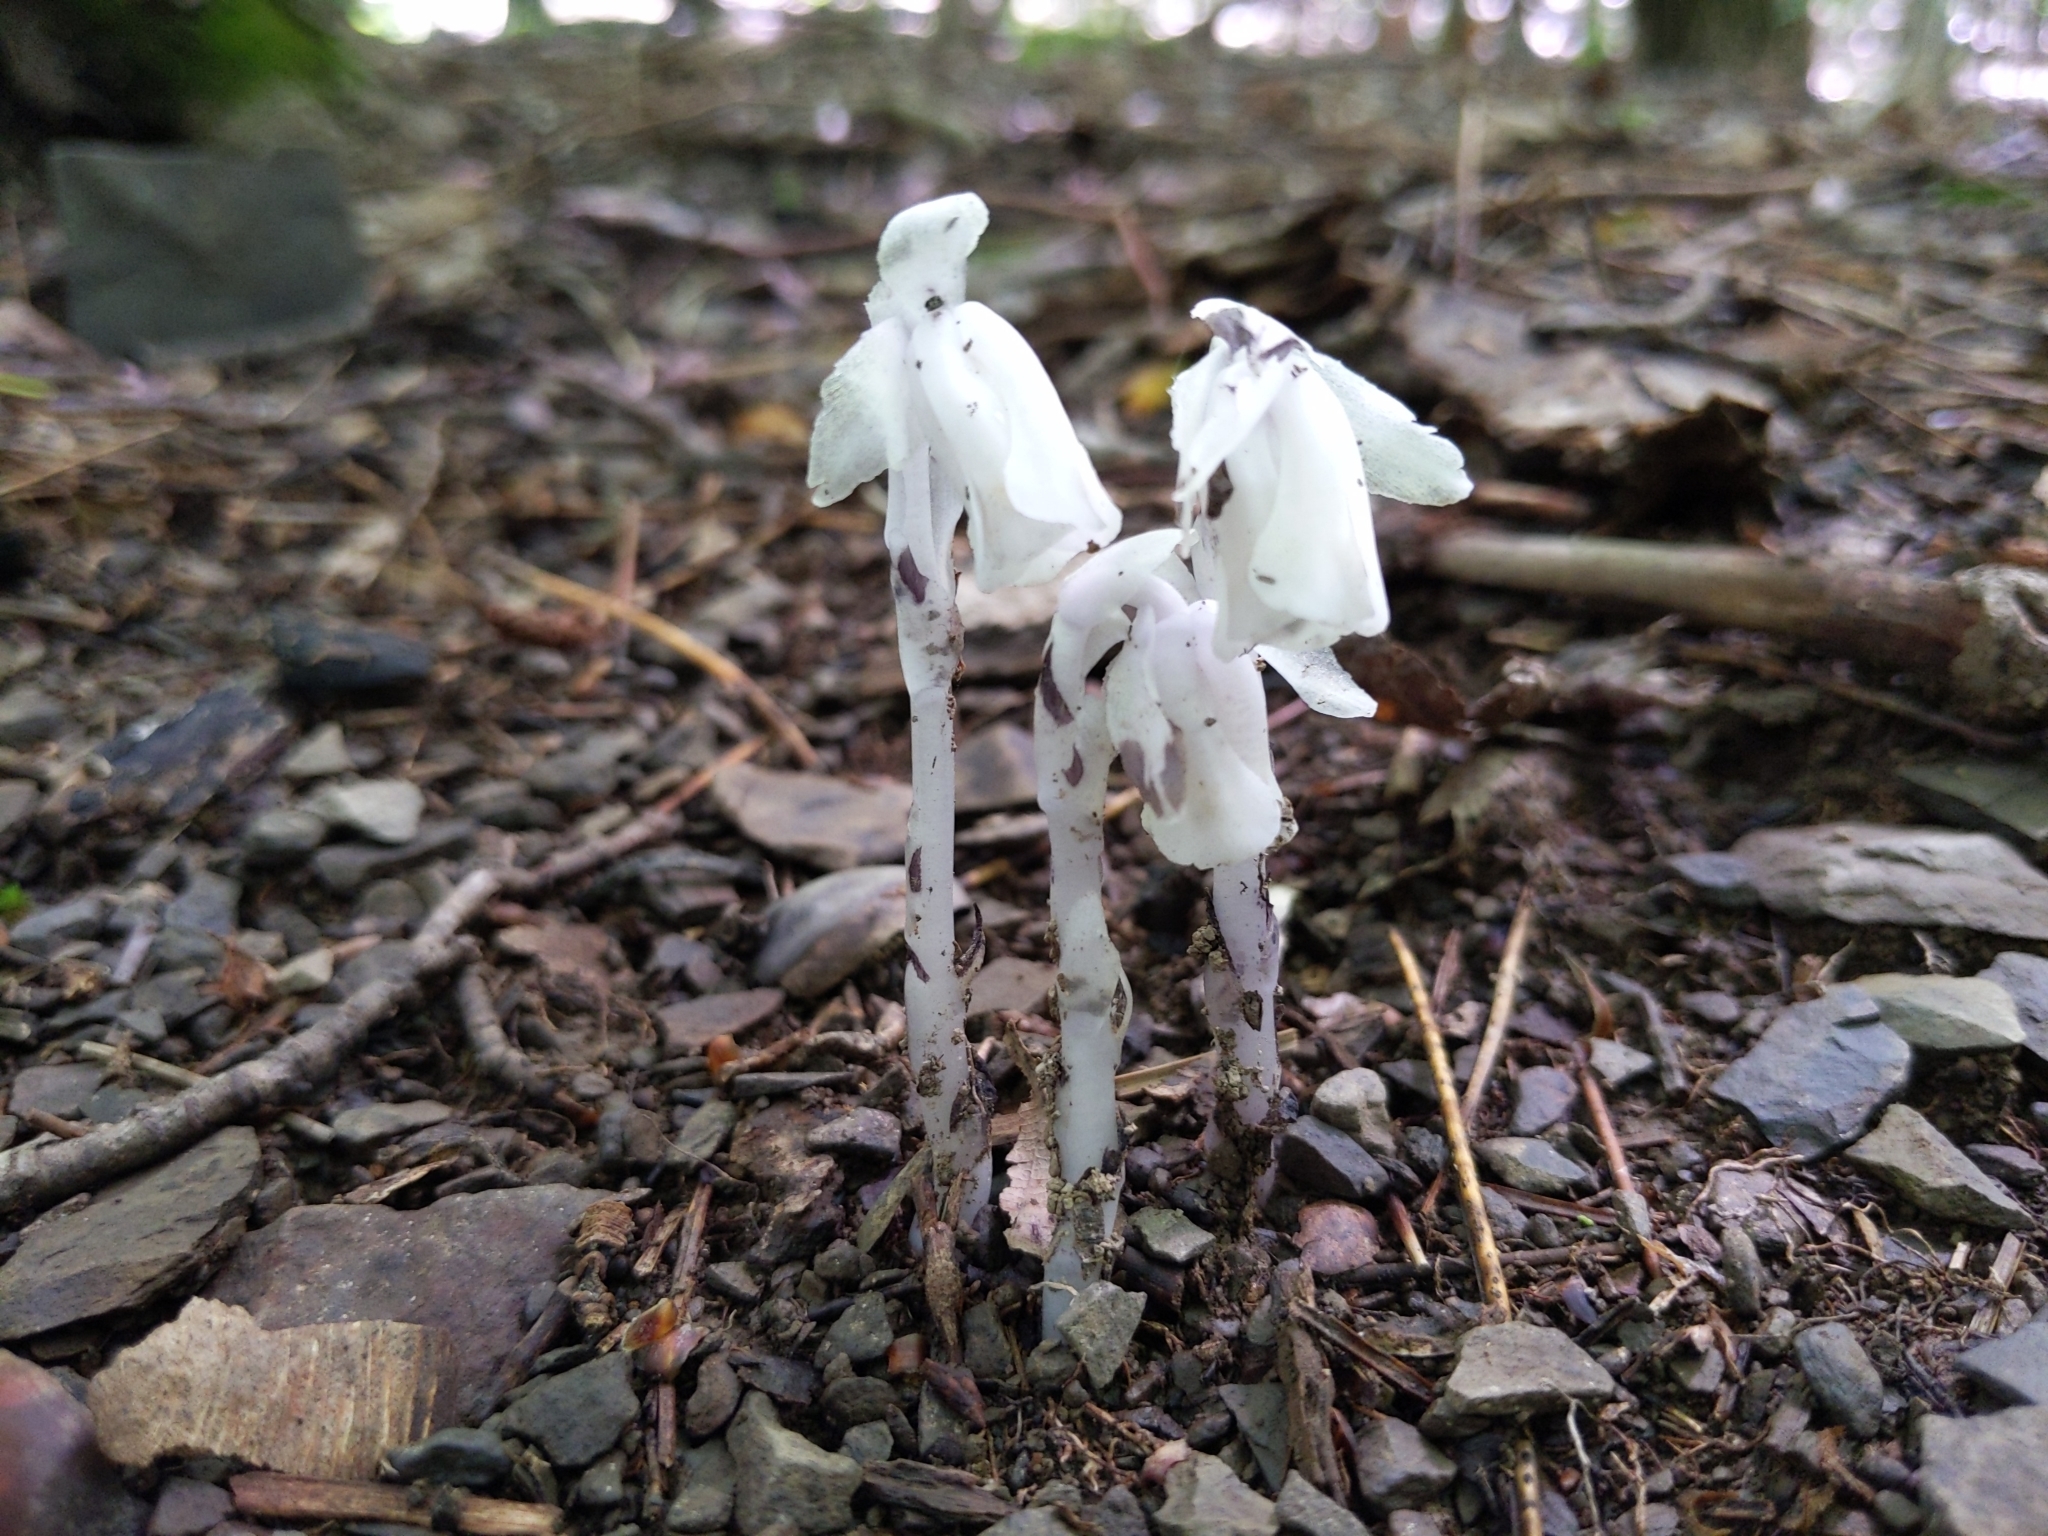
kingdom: Plantae
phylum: Tracheophyta
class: Magnoliopsida
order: Ericales
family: Ericaceae
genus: Monotropa
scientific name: Monotropa uniflora
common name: Convulsion root
